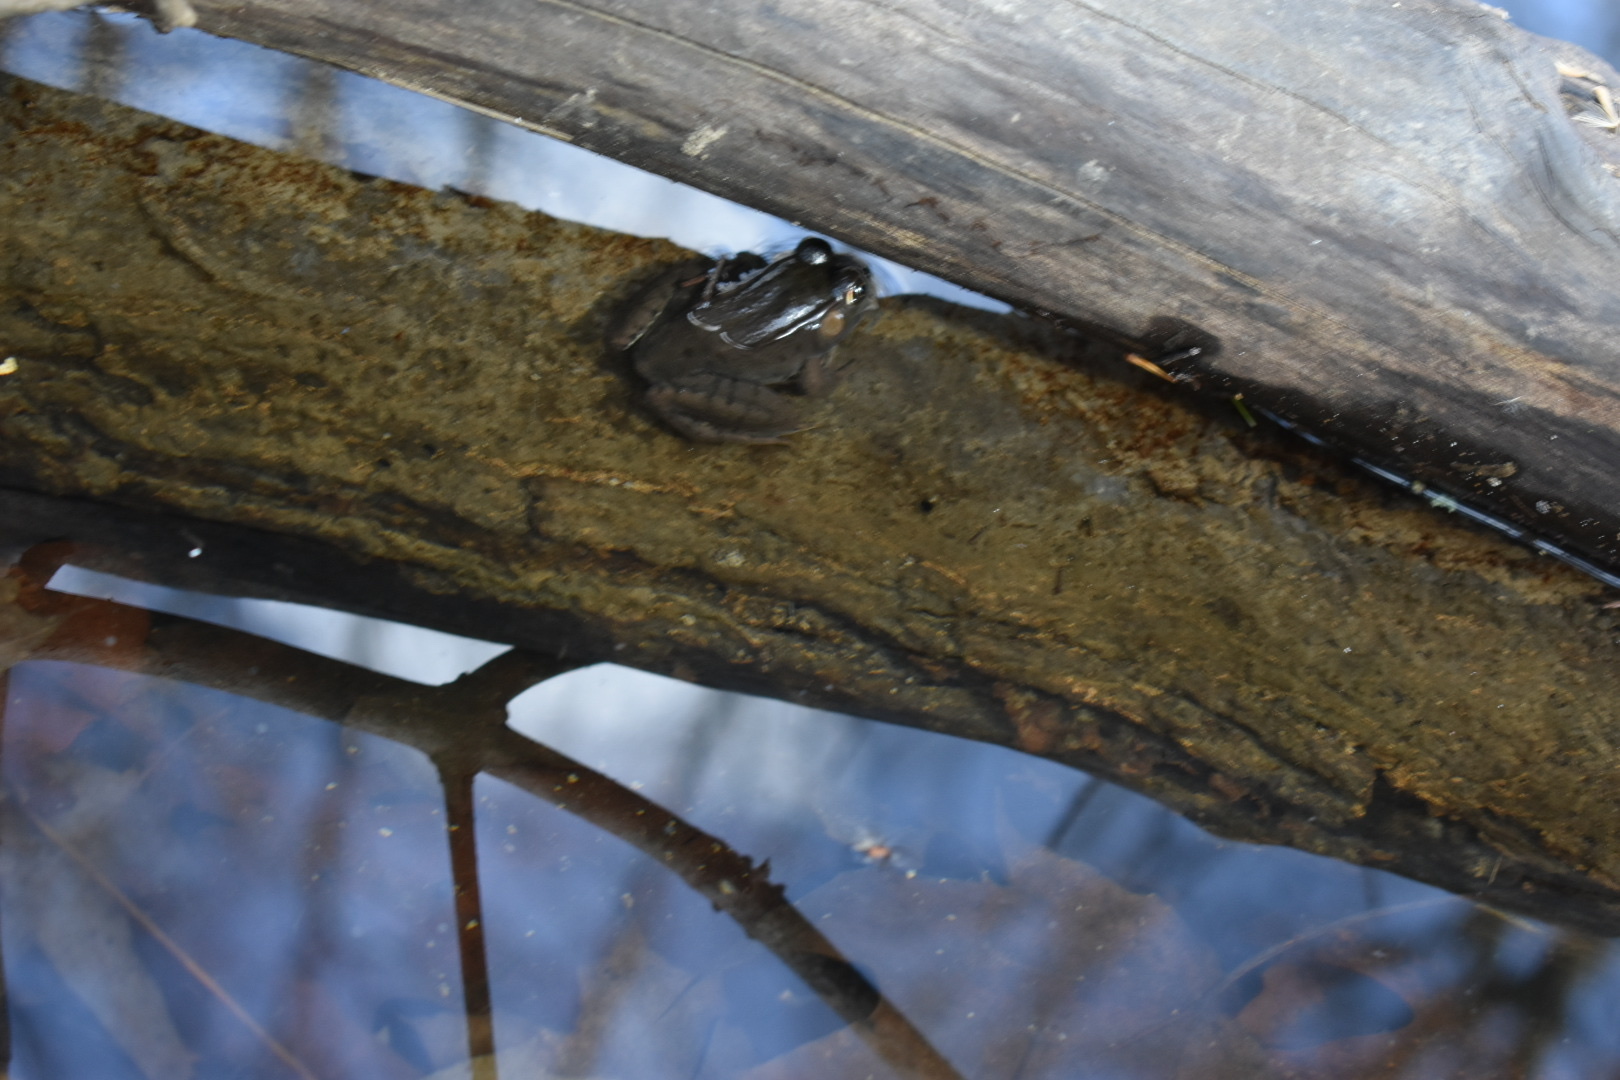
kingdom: Animalia
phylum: Chordata
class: Amphibia
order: Anura
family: Ranidae
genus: Lithobates
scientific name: Lithobates clamitans
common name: Green frog
